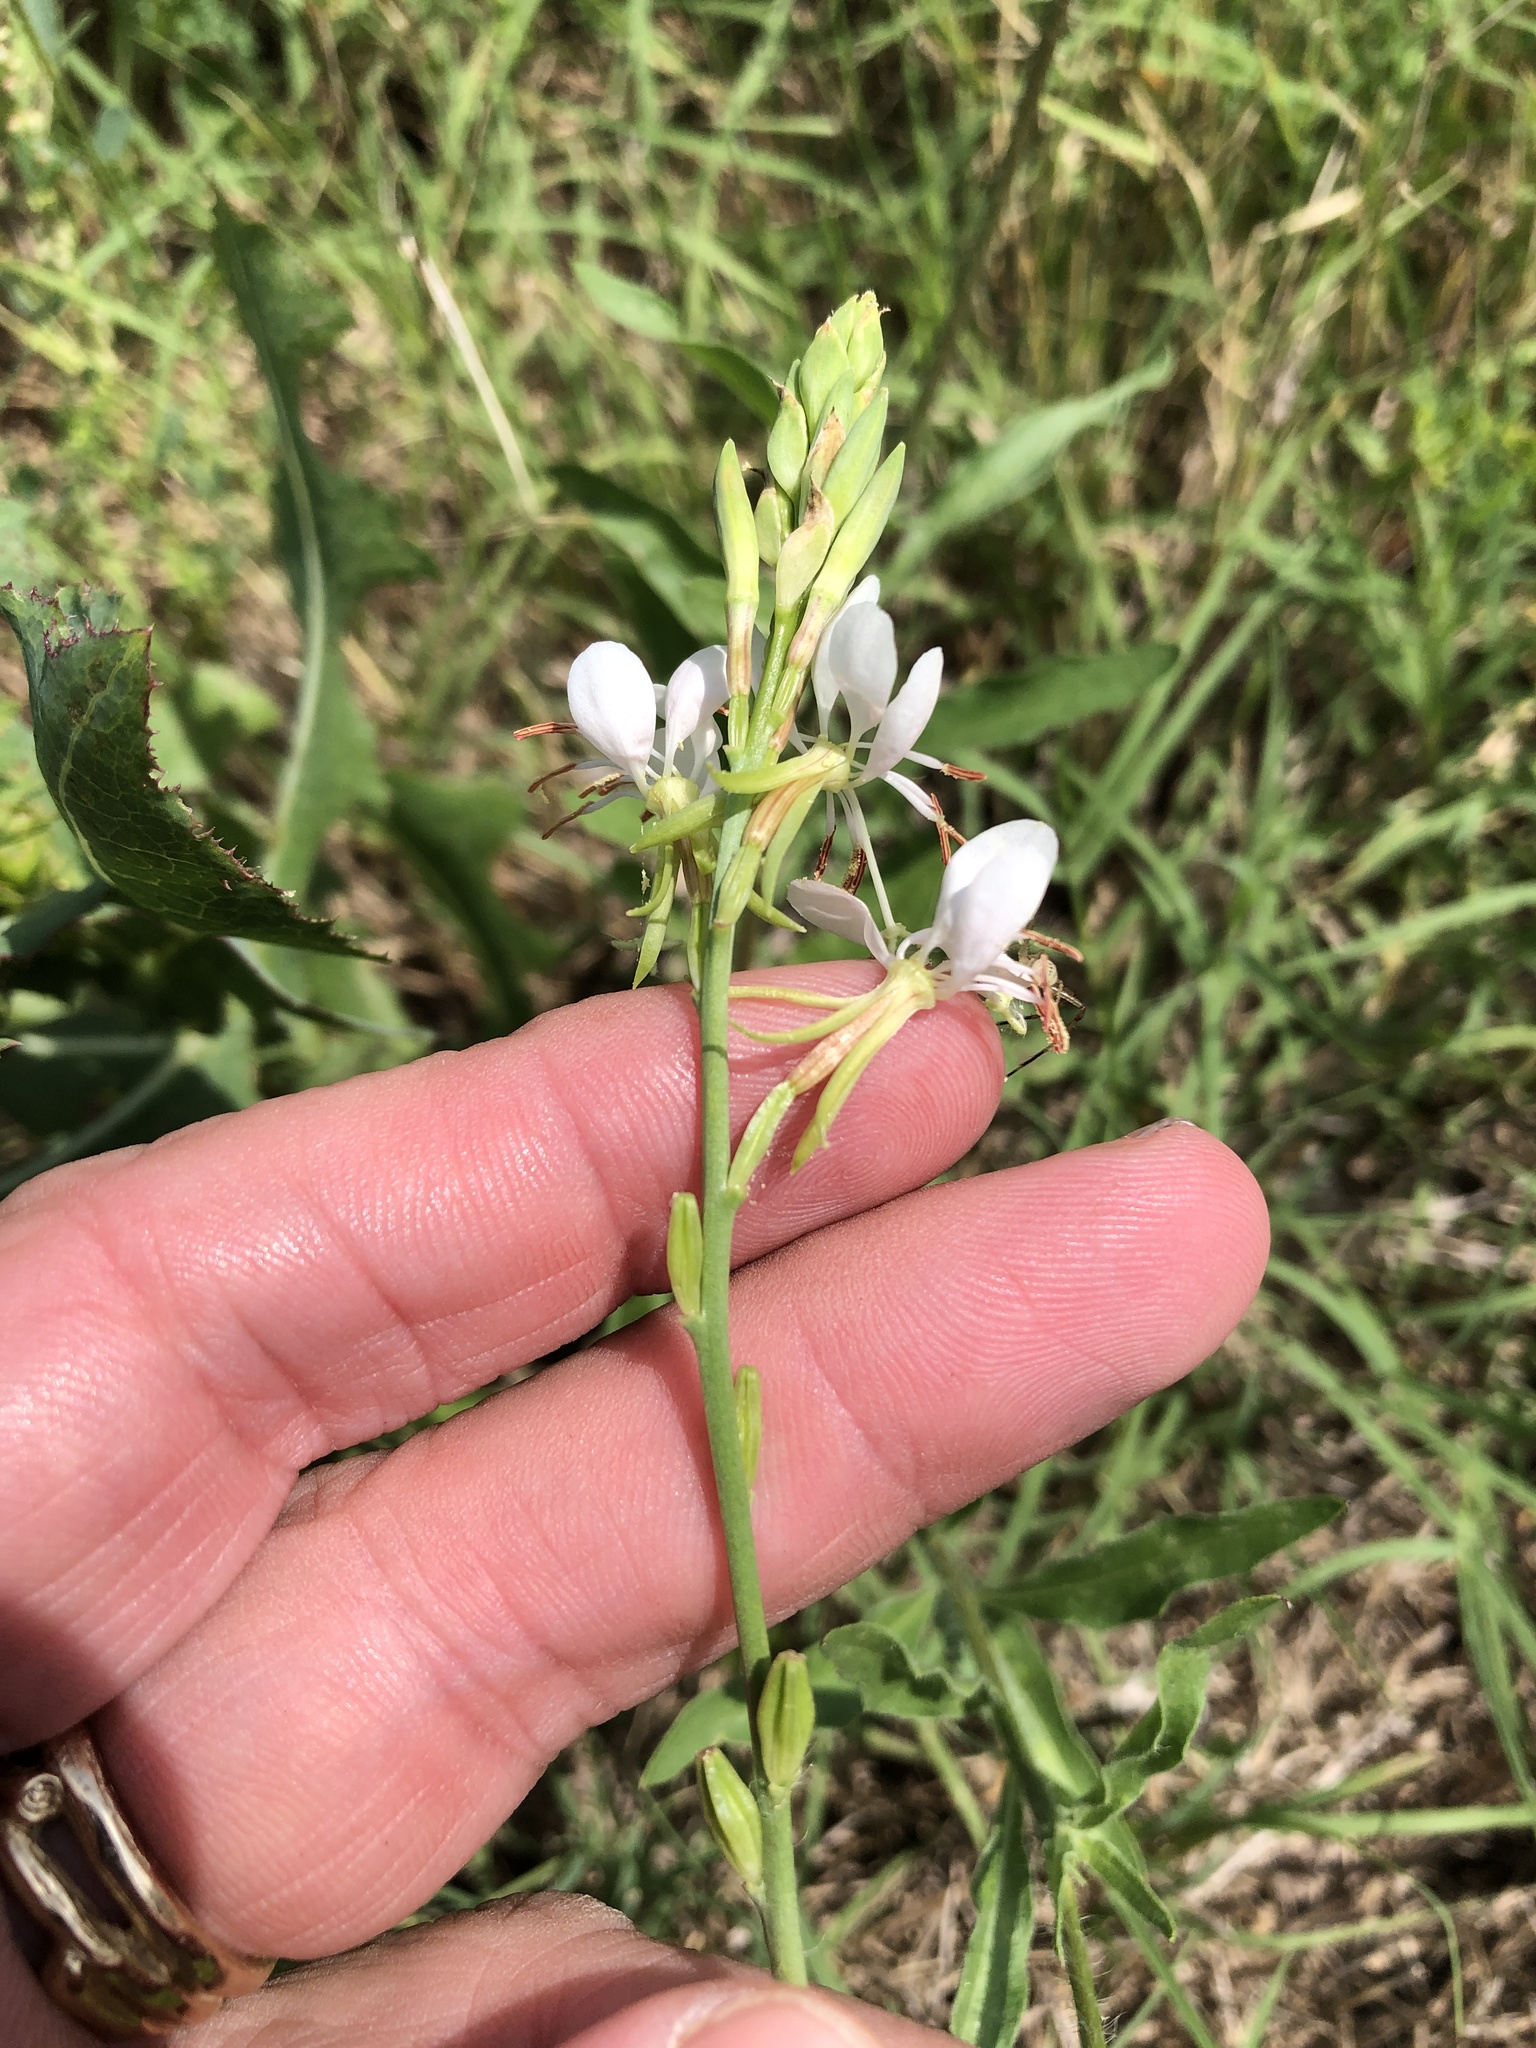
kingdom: Plantae
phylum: Tracheophyta
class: Magnoliopsida
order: Myrtales
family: Onagraceae
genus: Oenothera
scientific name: Oenothera suffulta
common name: Kisses
